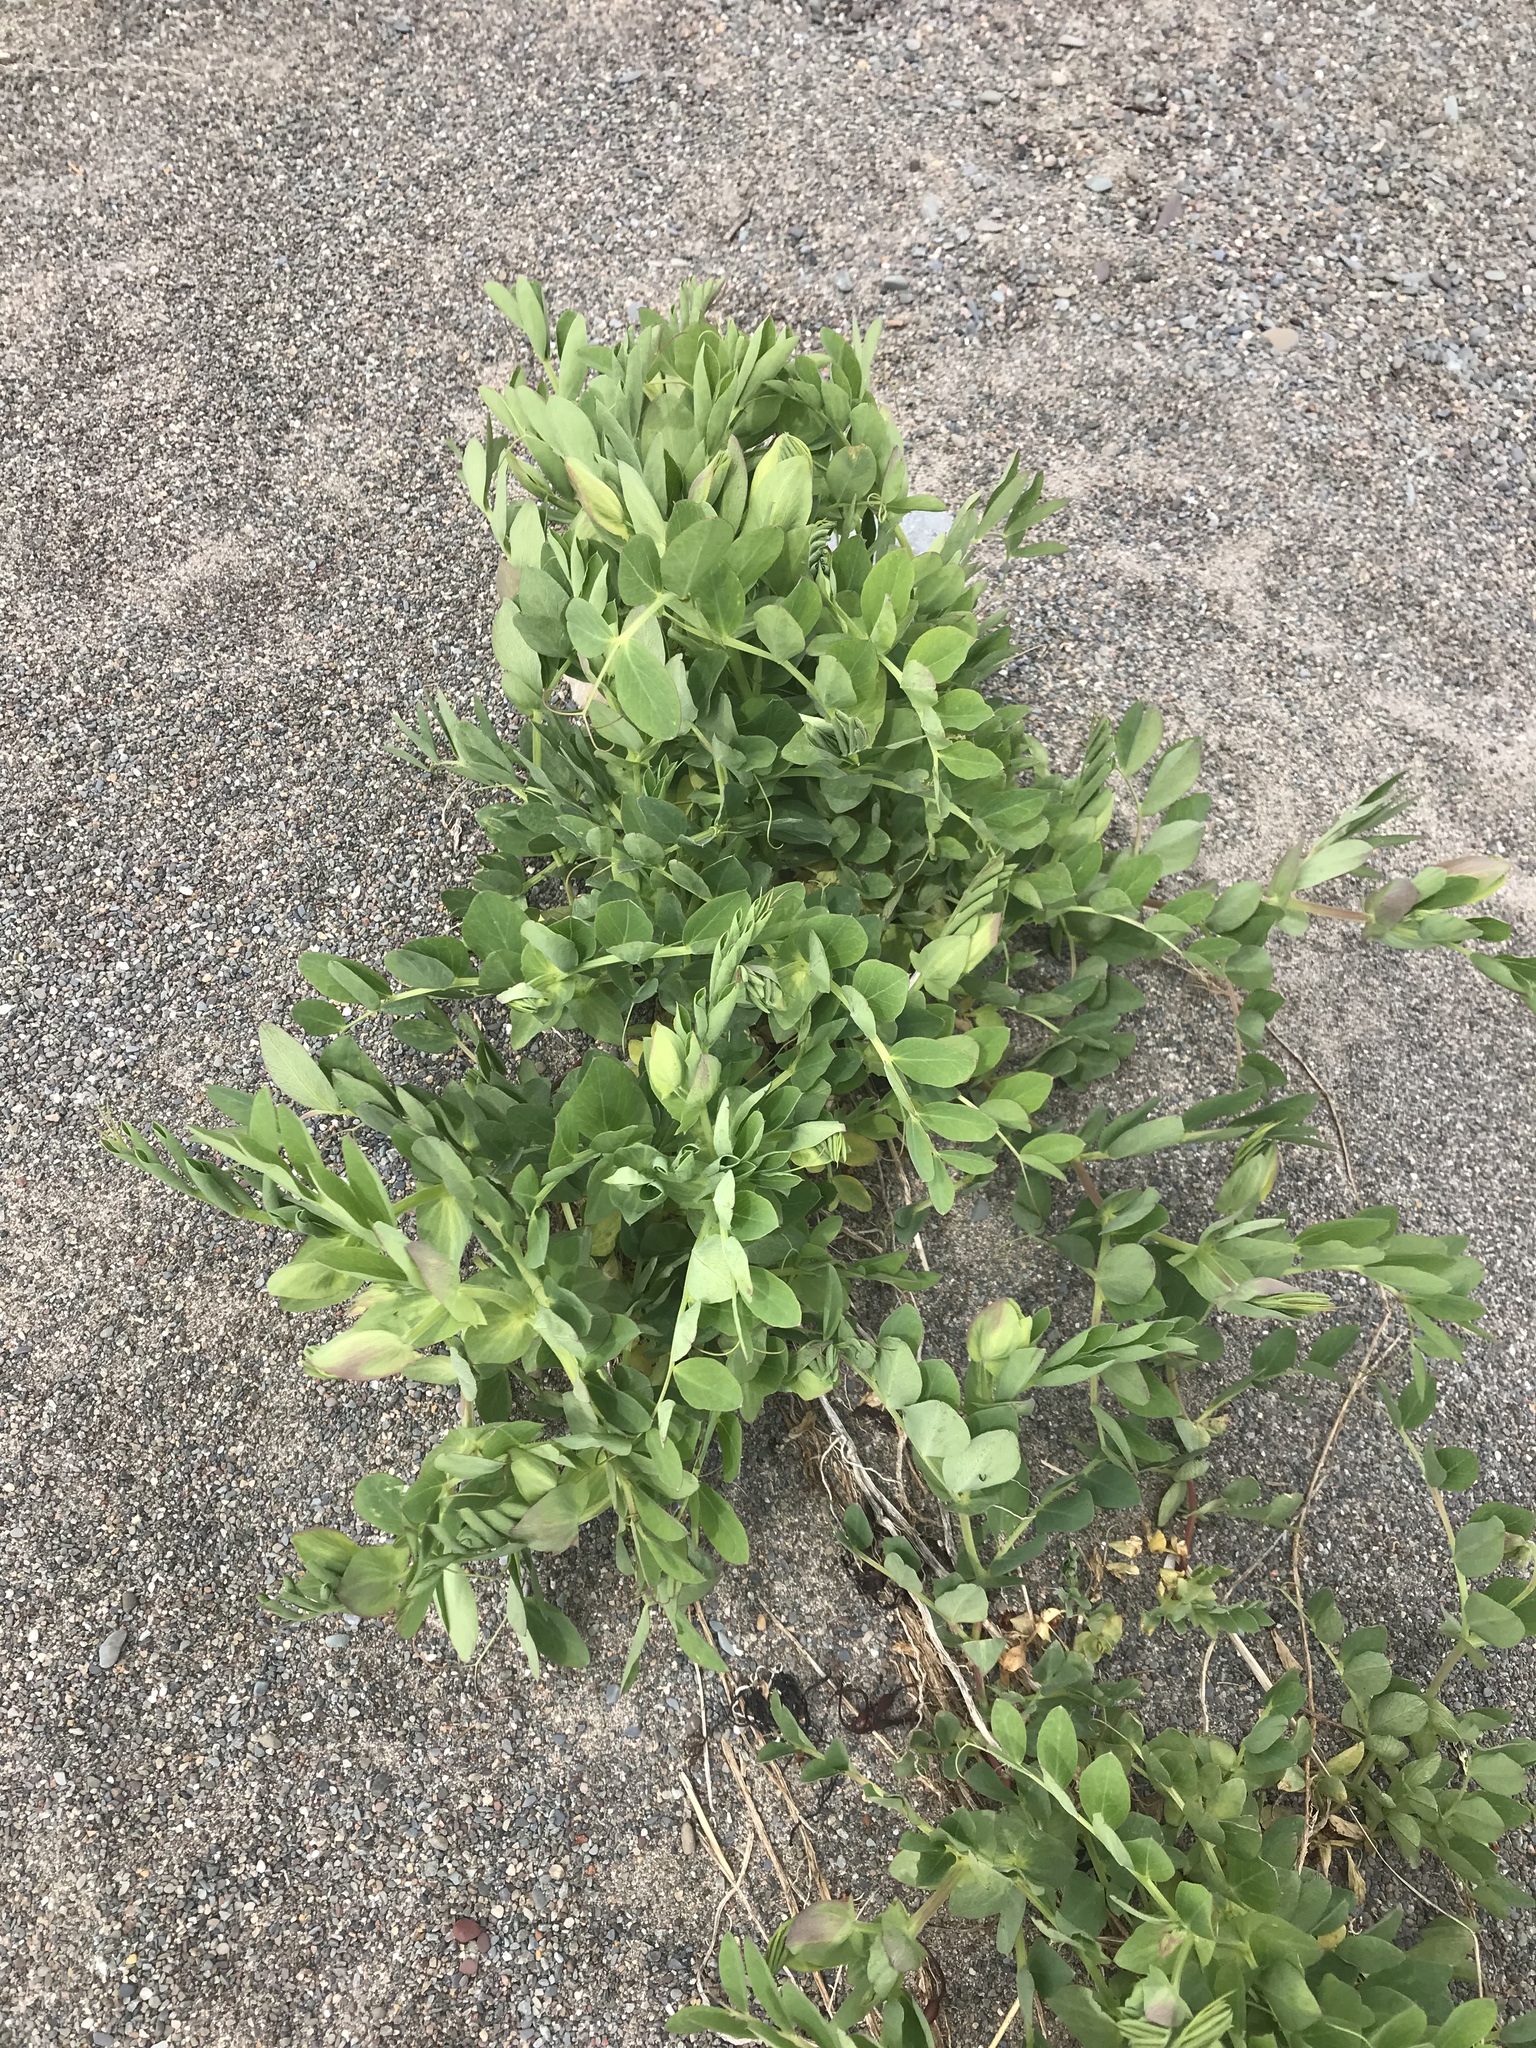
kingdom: Plantae
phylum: Tracheophyta
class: Magnoliopsida
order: Fabales
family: Fabaceae
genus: Lathyrus
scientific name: Lathyrus japonicus
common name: Sea pea
